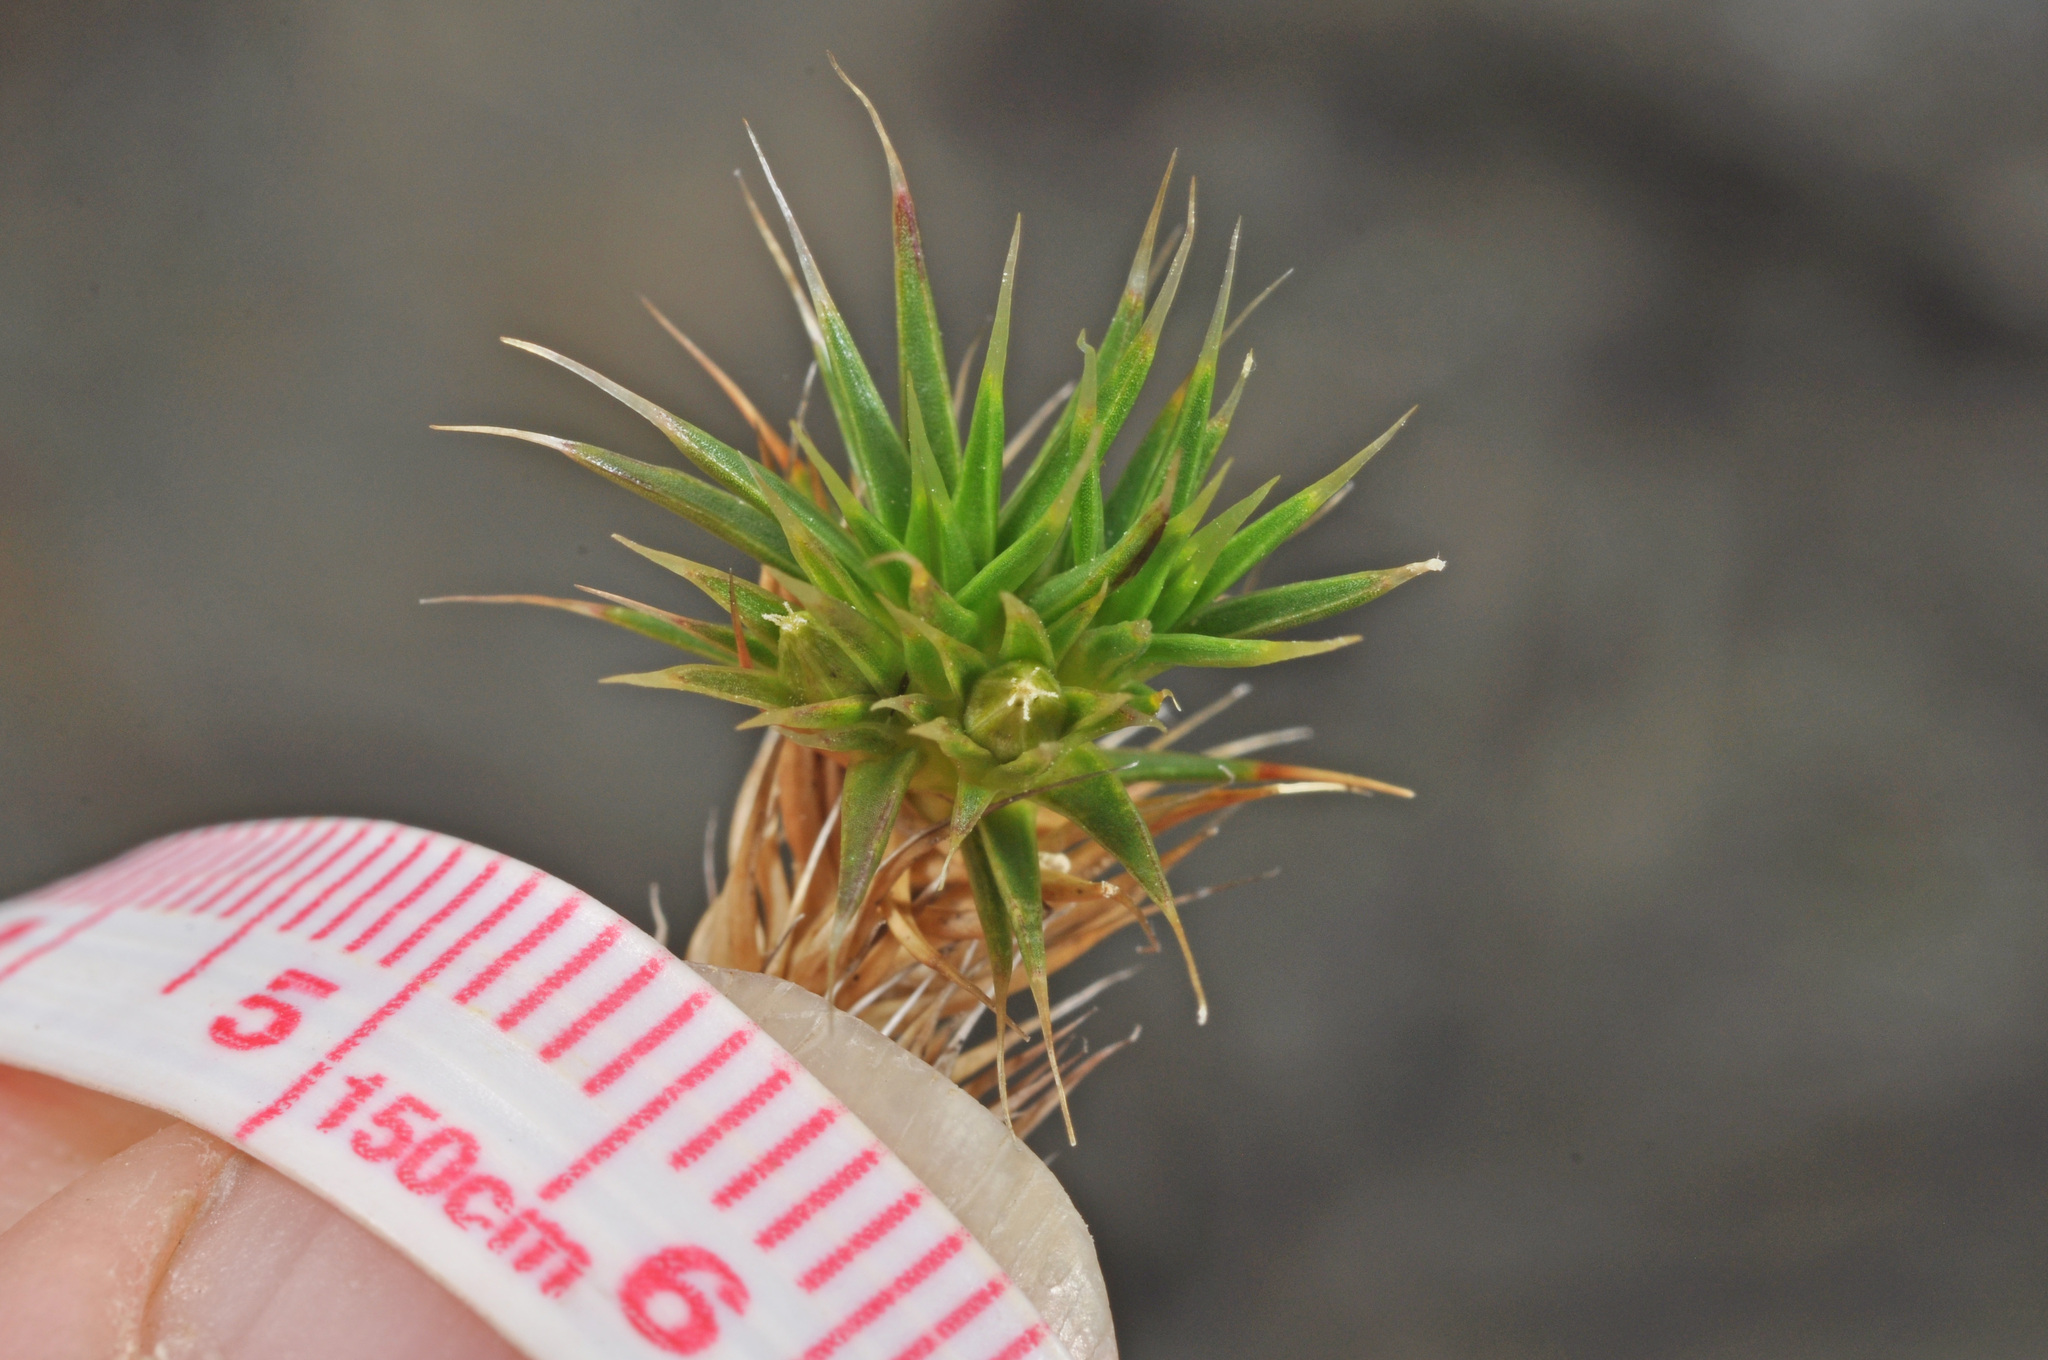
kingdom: Plantae
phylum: Tracheophyta
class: Magnoliopsida
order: Caryophyllales
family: Caryophyllaceae
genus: Colobanthus
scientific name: Colobanthus acicularis
